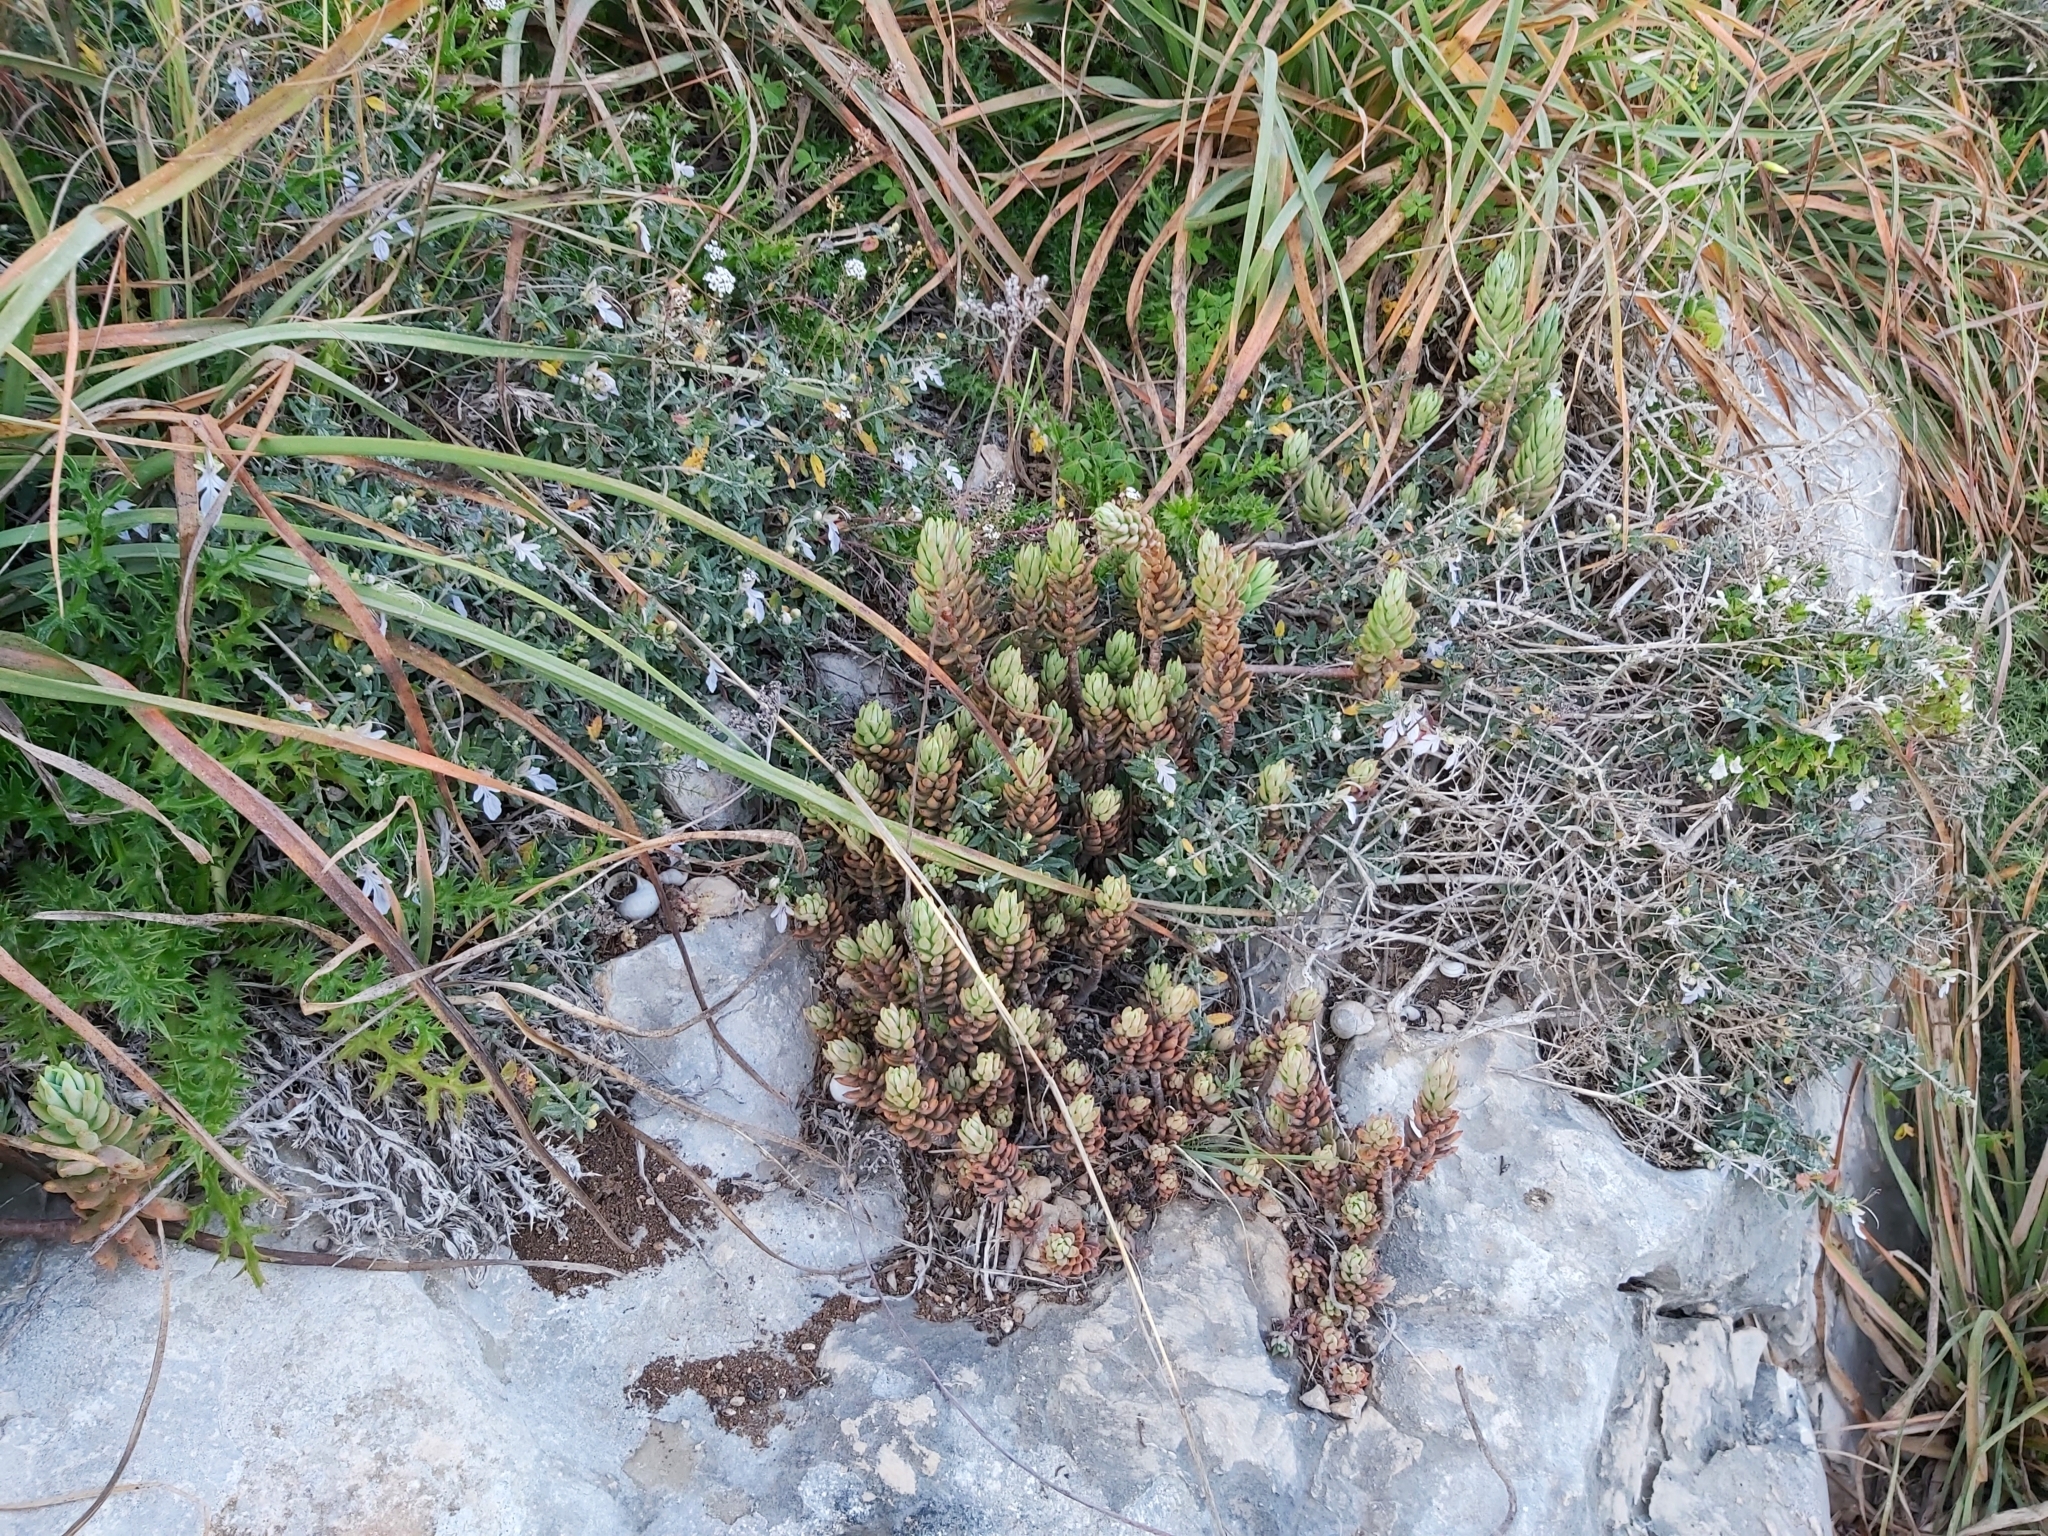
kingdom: Plantae
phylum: Tracheophyta
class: Magnoliopsida
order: Saxifragales
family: Crassulaceae
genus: Petrosedum
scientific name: Petrosedum sediforme
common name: Pale stonecrop
